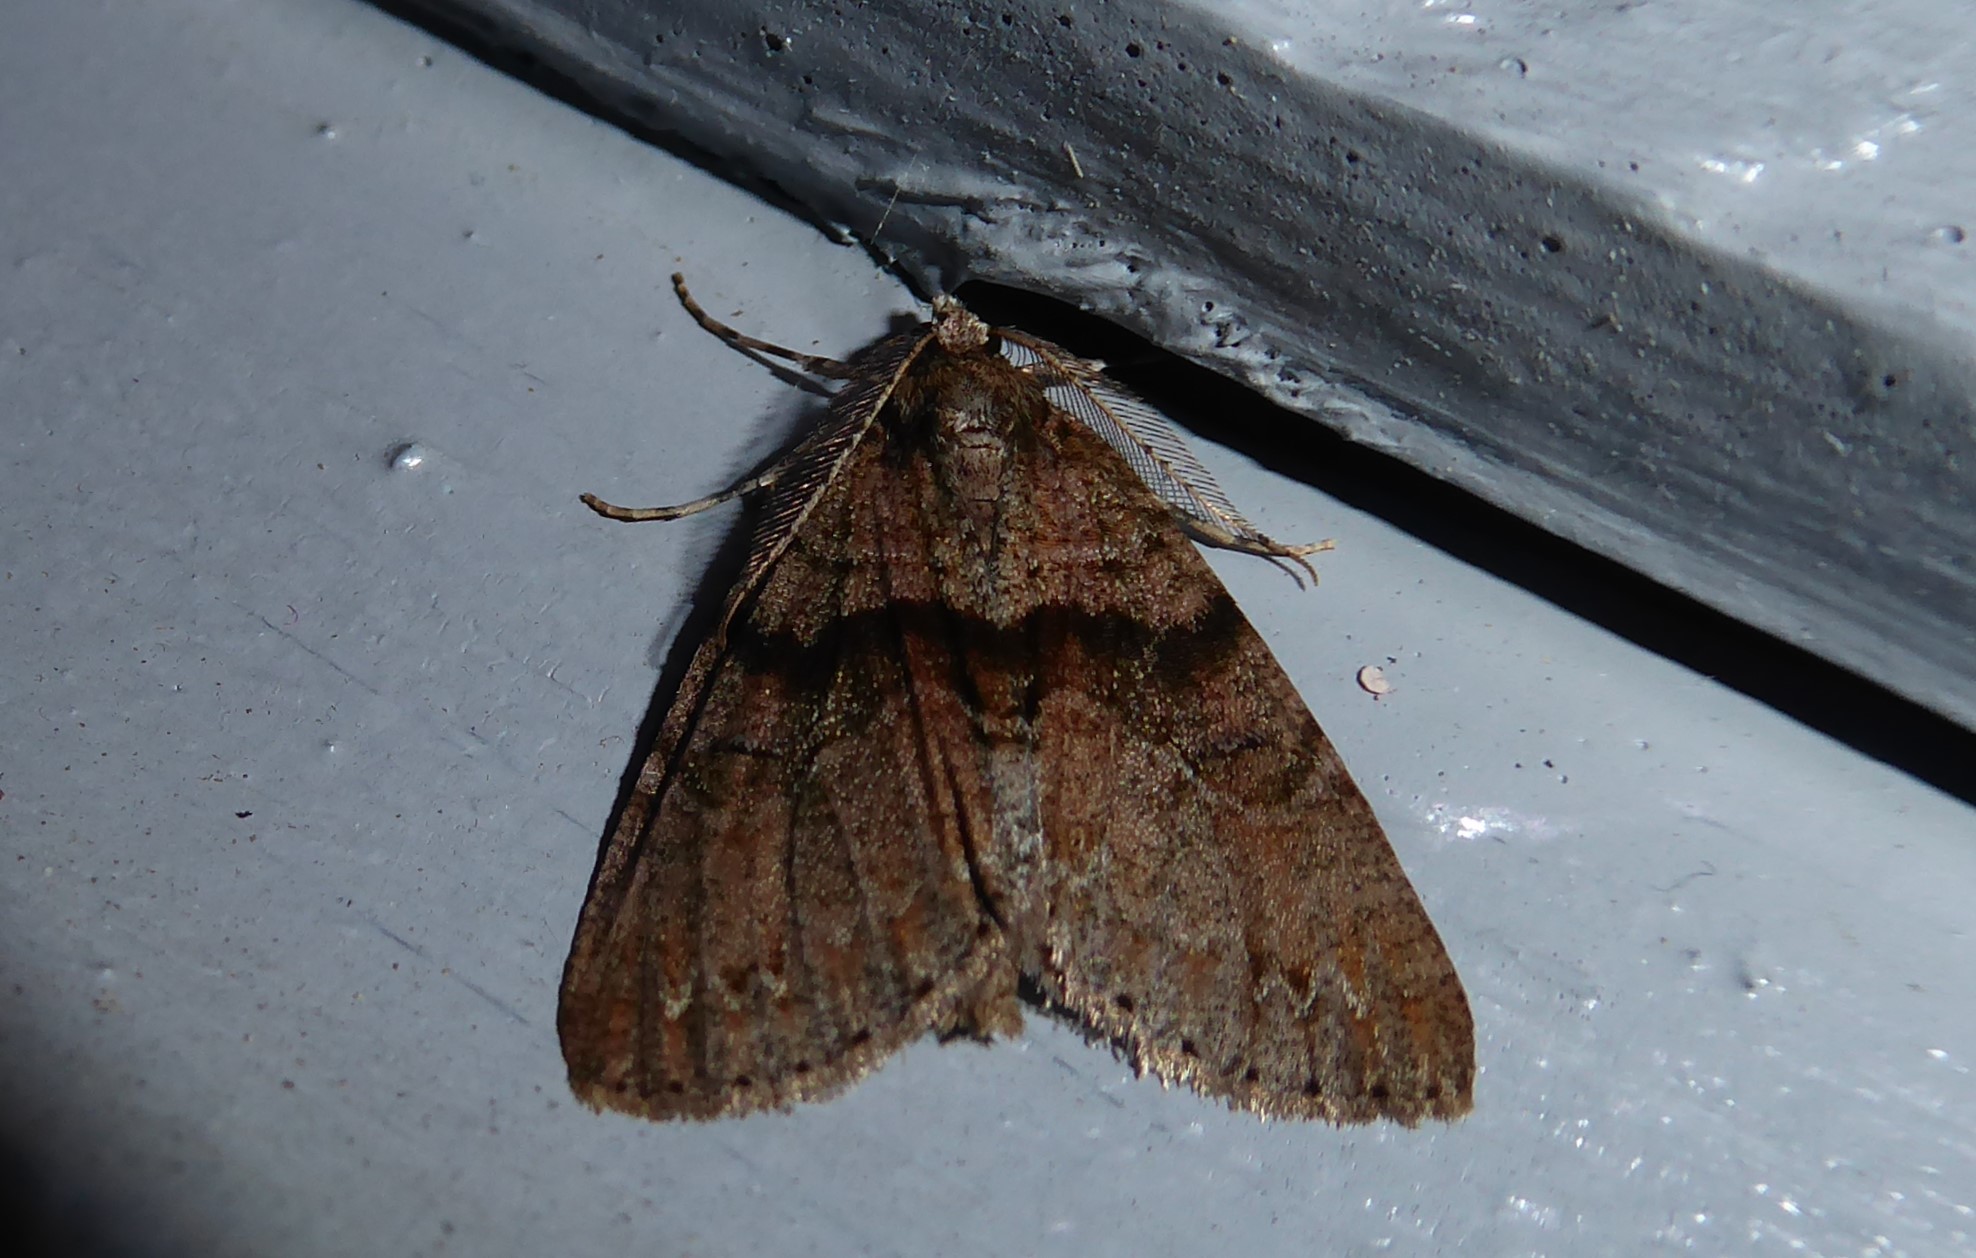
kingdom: Animalia
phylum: Arthropoda
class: Insecta
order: Lepidoptera
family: Geometridae
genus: Pseudocoremia
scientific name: Pseudocoremia suavis
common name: Common forest looper
